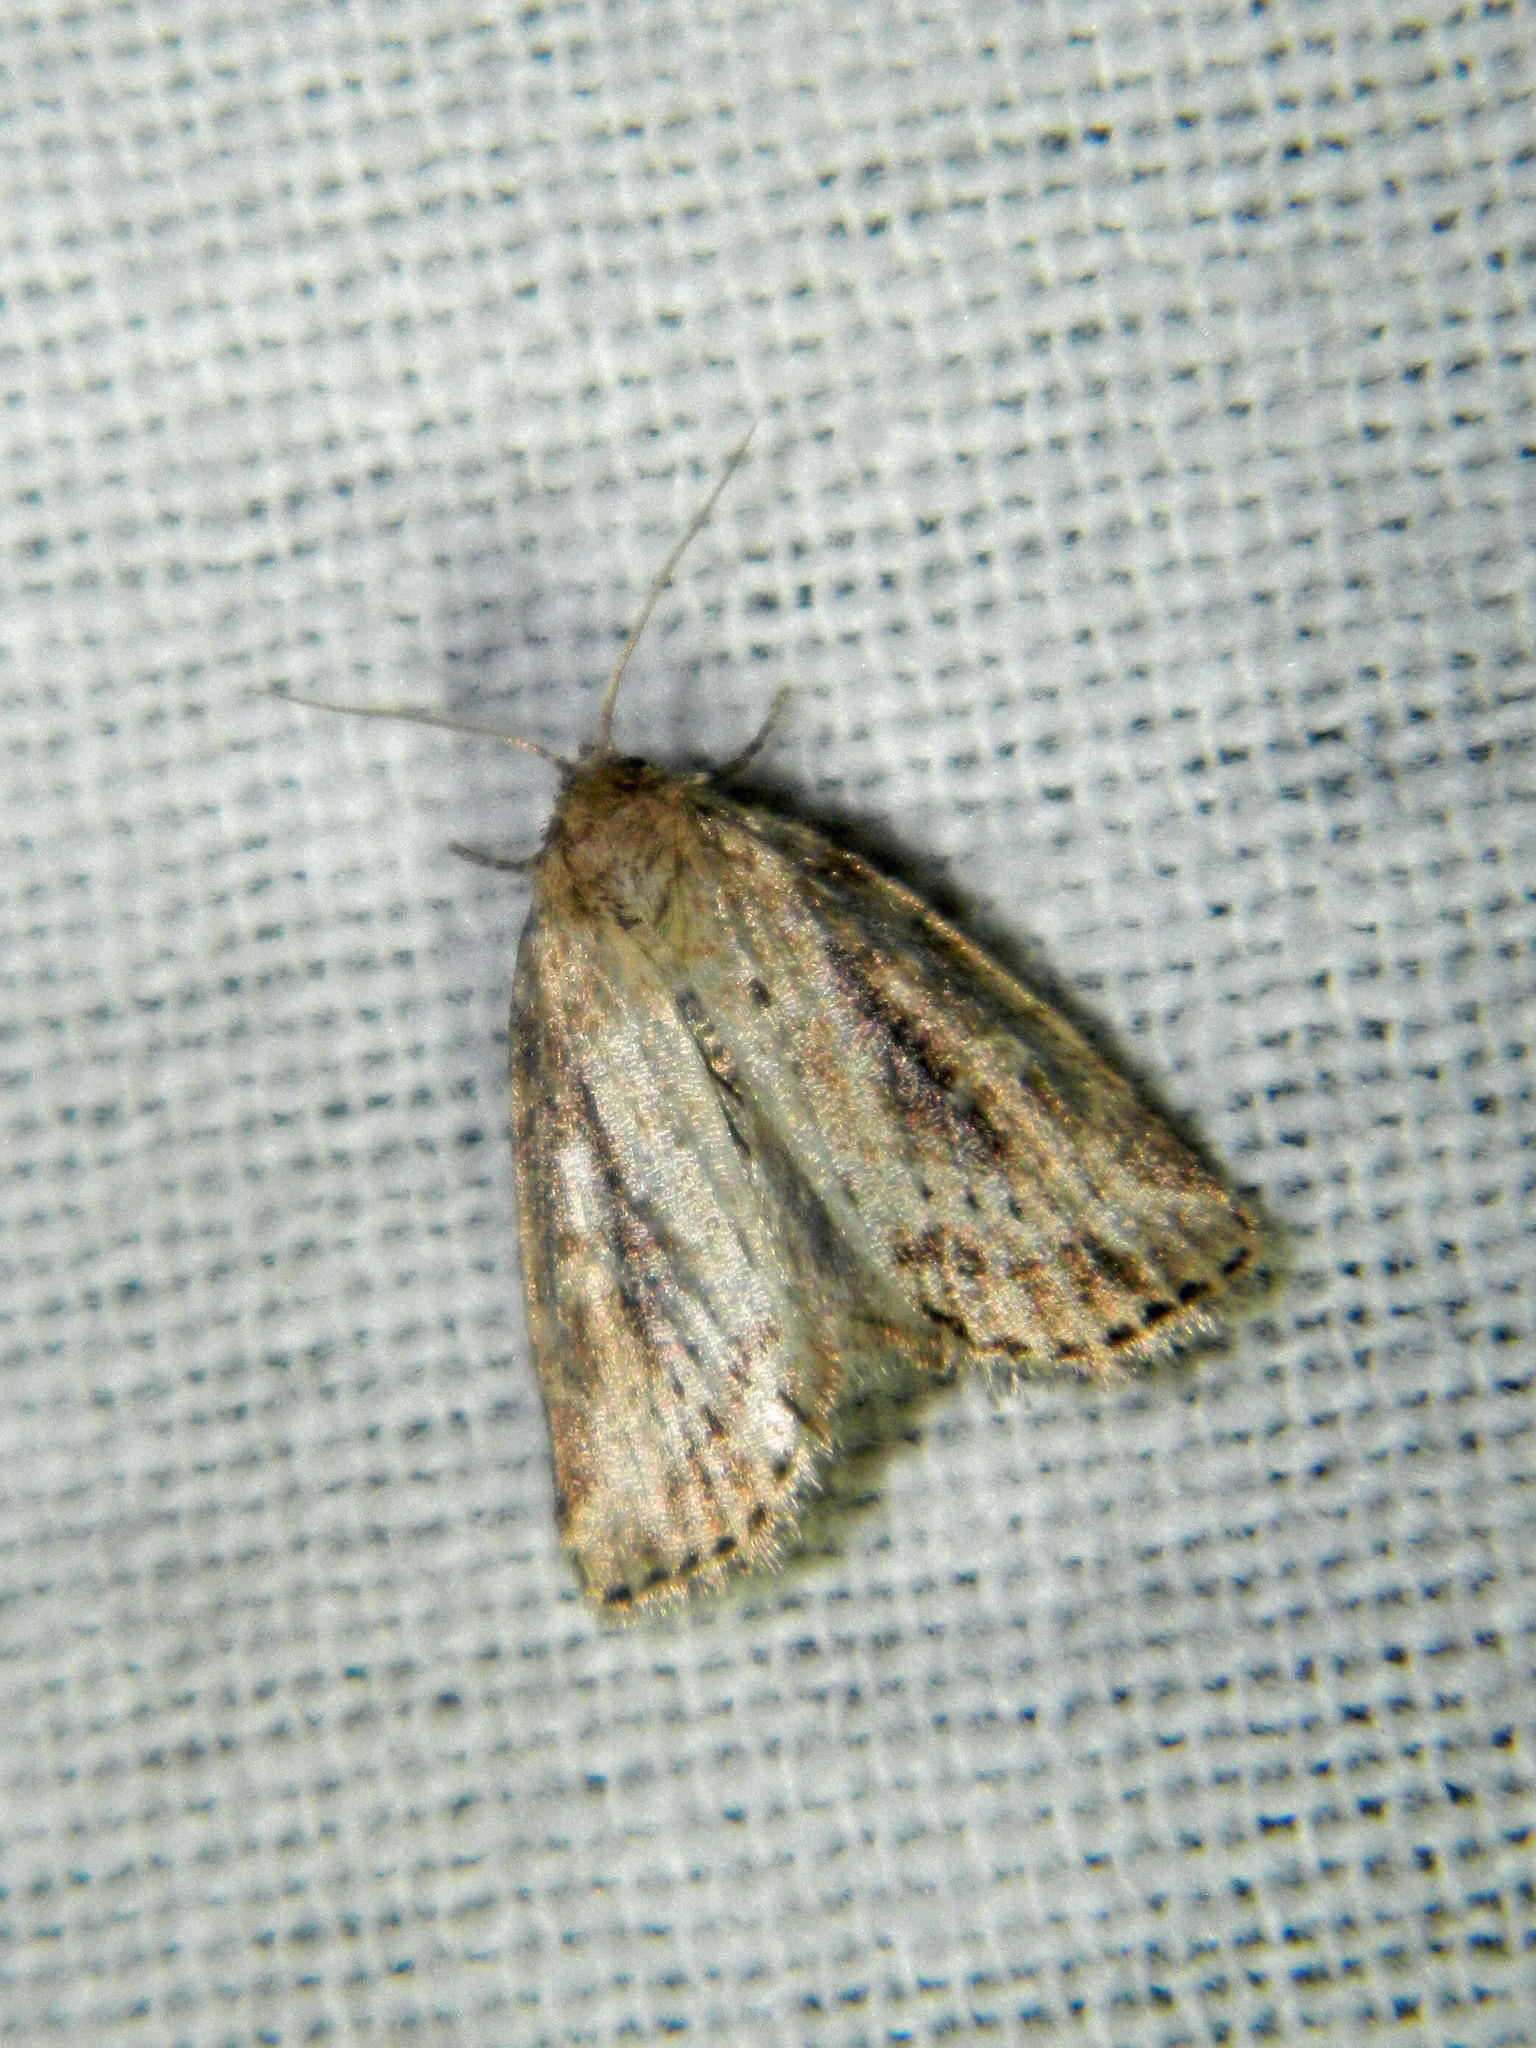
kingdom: Animalia
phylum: Arthropoda
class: Insecta
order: Lepidoptera
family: Noctuidae
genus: Photedes
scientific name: Photedes panatela
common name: Northern cordgrass borer moth
